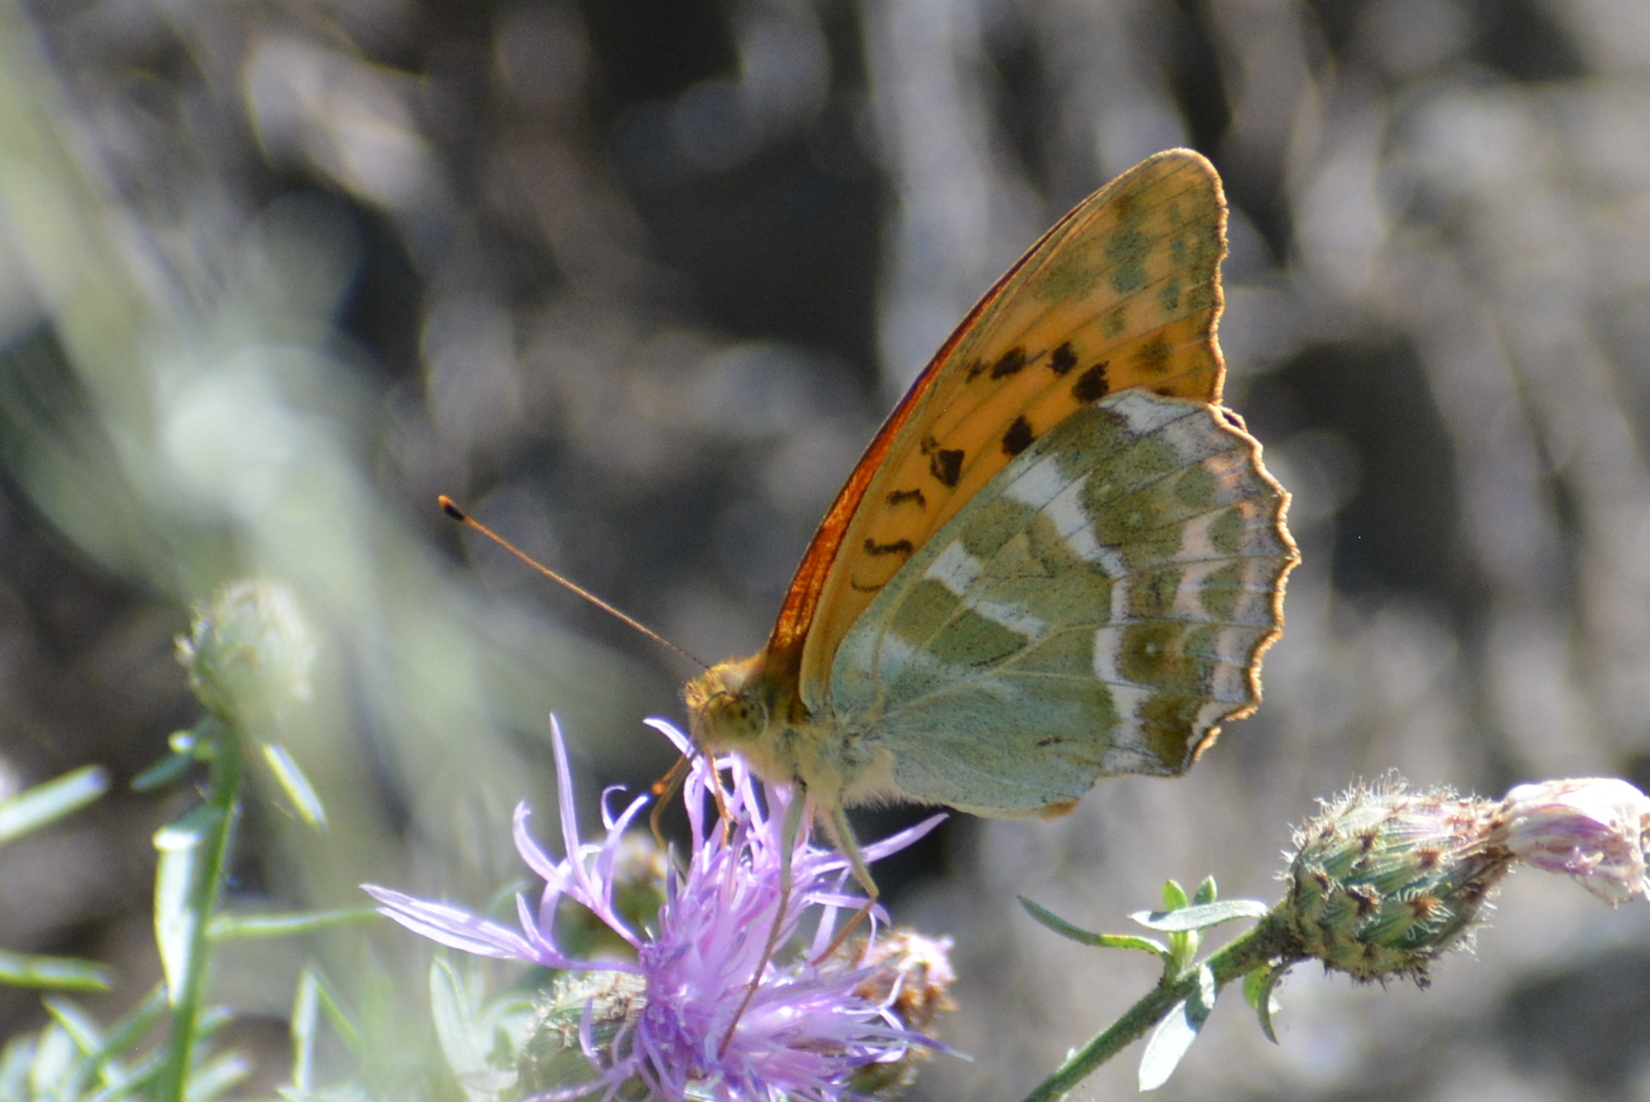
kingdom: Animalia
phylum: Arthropoda
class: Insecta
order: Lepidoptera
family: Nymphalidae
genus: Argynnis
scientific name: Argynnis paphia
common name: Silver-washed fritillary
